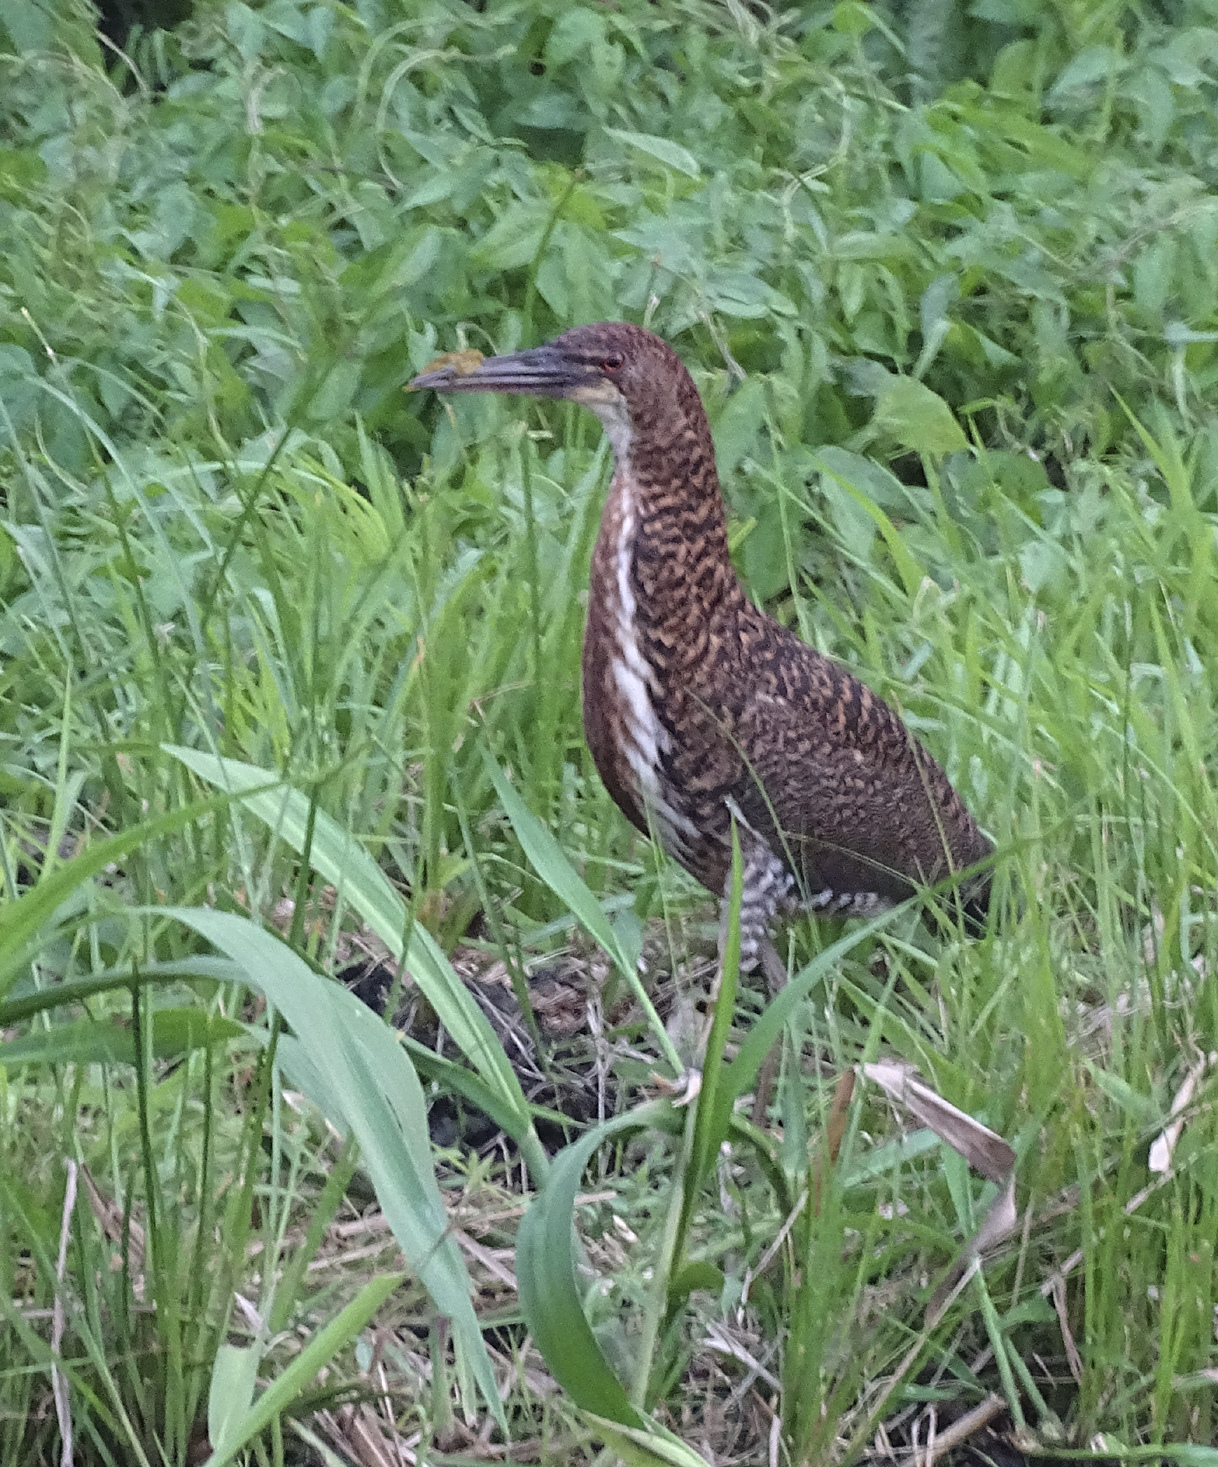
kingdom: Animalia
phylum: Chordata
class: Aves
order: Pelecaniformes
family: Ardeidae
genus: Tigrisoma
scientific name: Tigrisoma lineatum
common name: Rufescent tiger-heron
